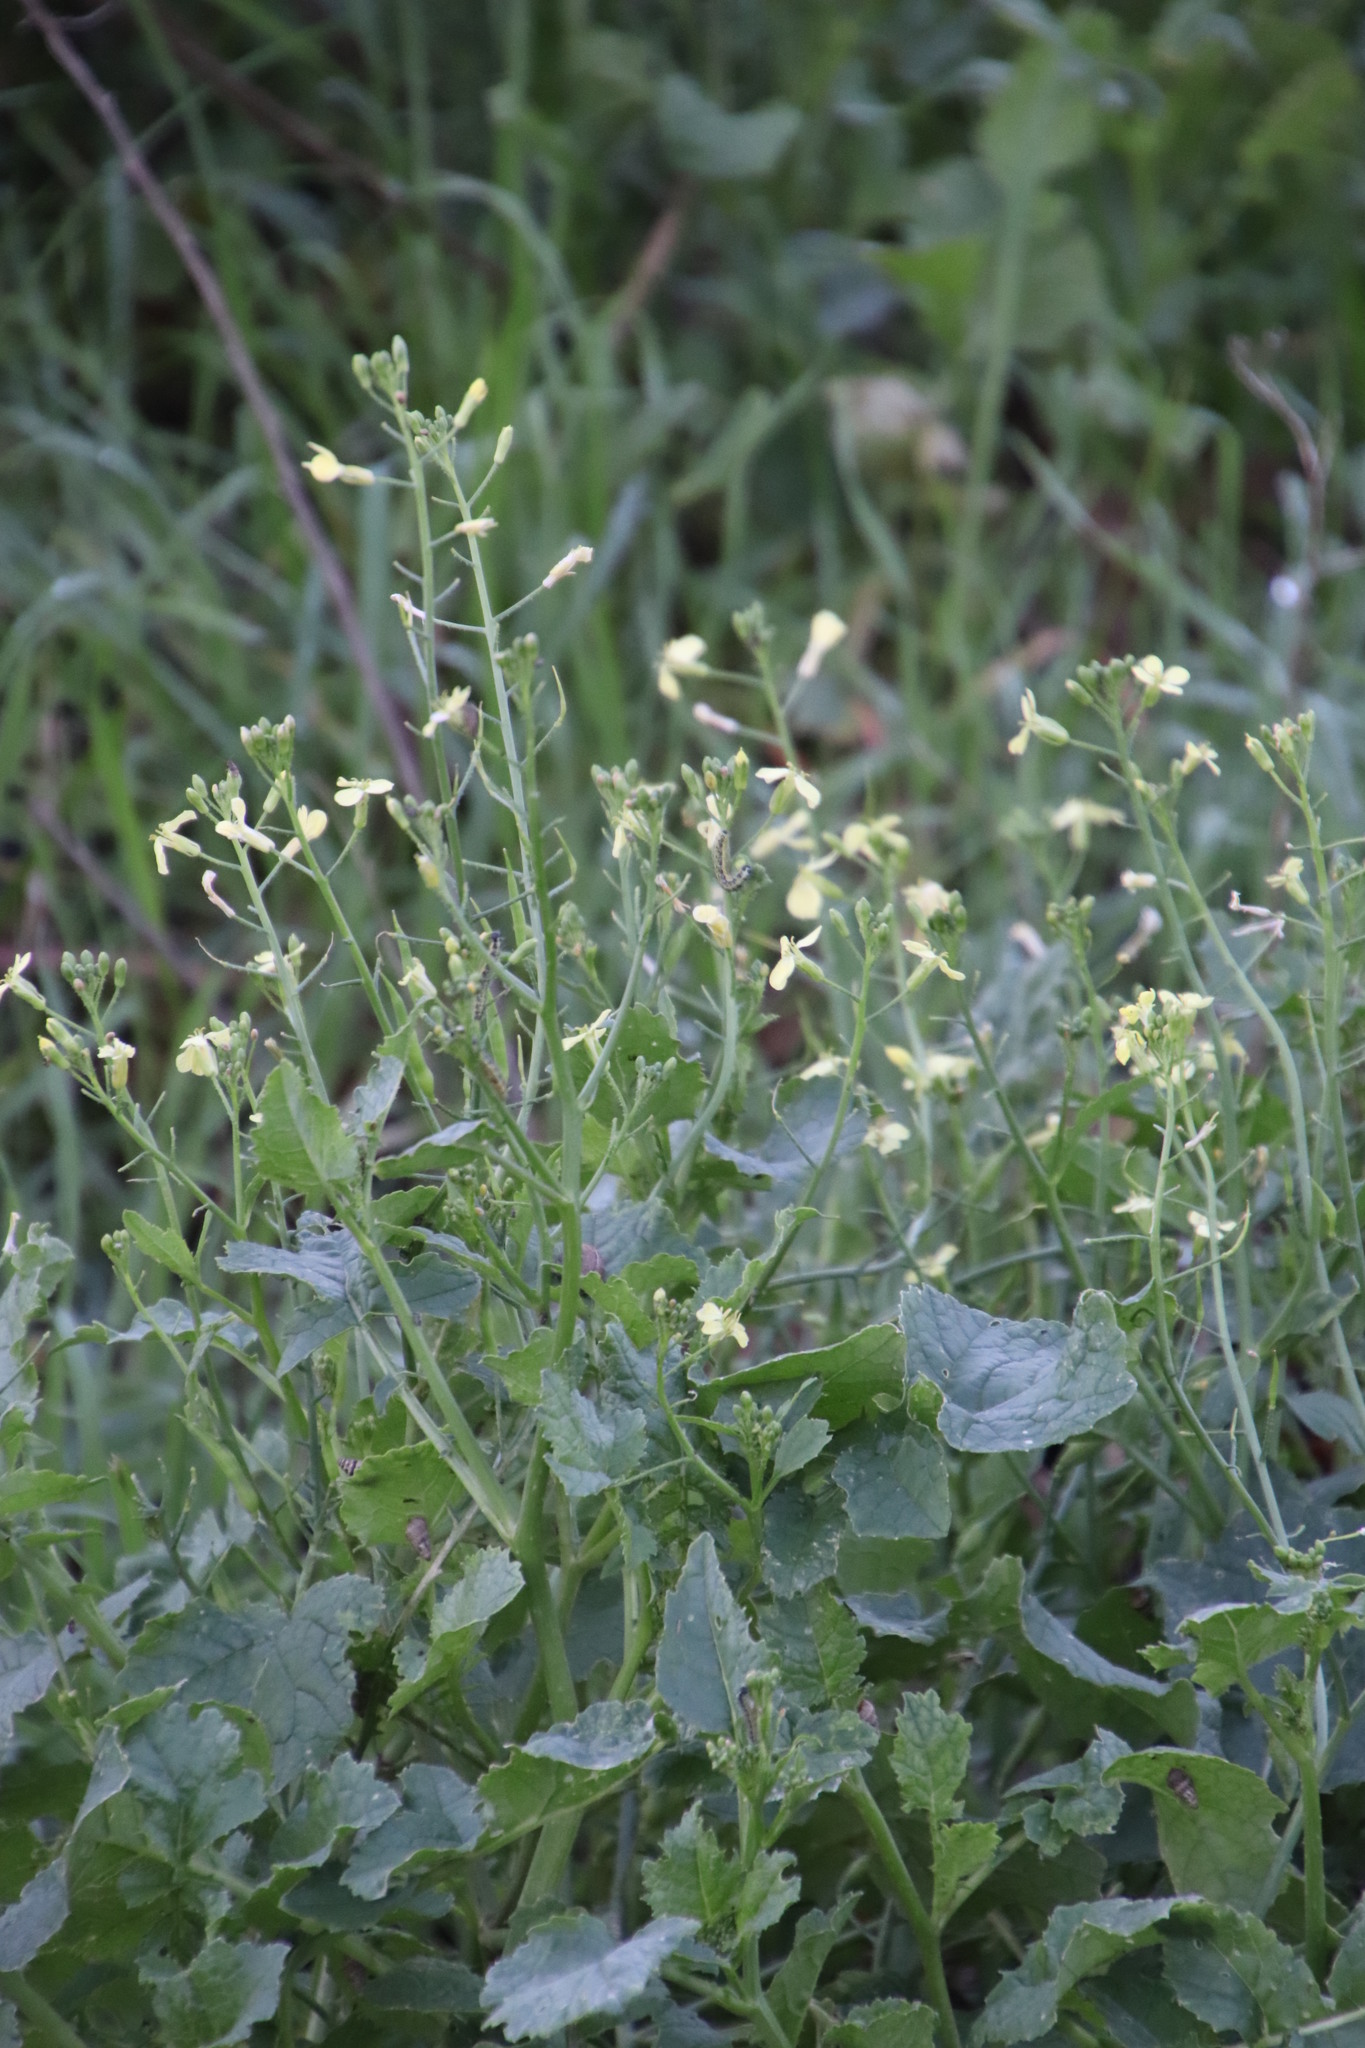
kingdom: Plantae
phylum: Tracheophyta
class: Magnoliopsida
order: Brassicales
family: Brassicaceae
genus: Raphanus
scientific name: Raphanus raphanistrum
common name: Wild radish
